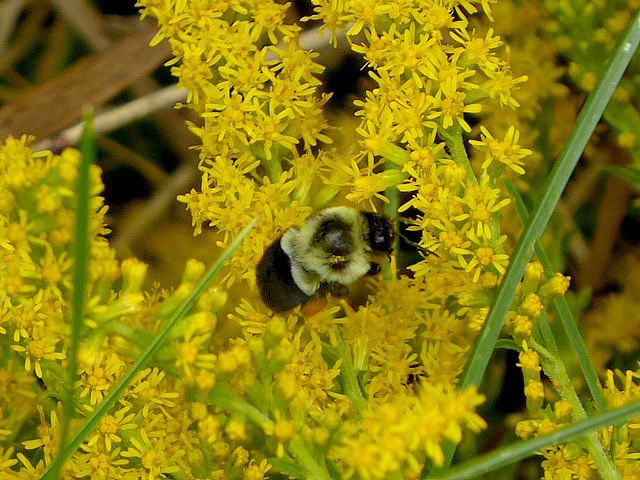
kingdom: Animalia
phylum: Arthropoda
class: Insecta
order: Hymenoptera
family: Apidae
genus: Bombus
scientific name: Bombus impatiens
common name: Common eastern bumble bee
